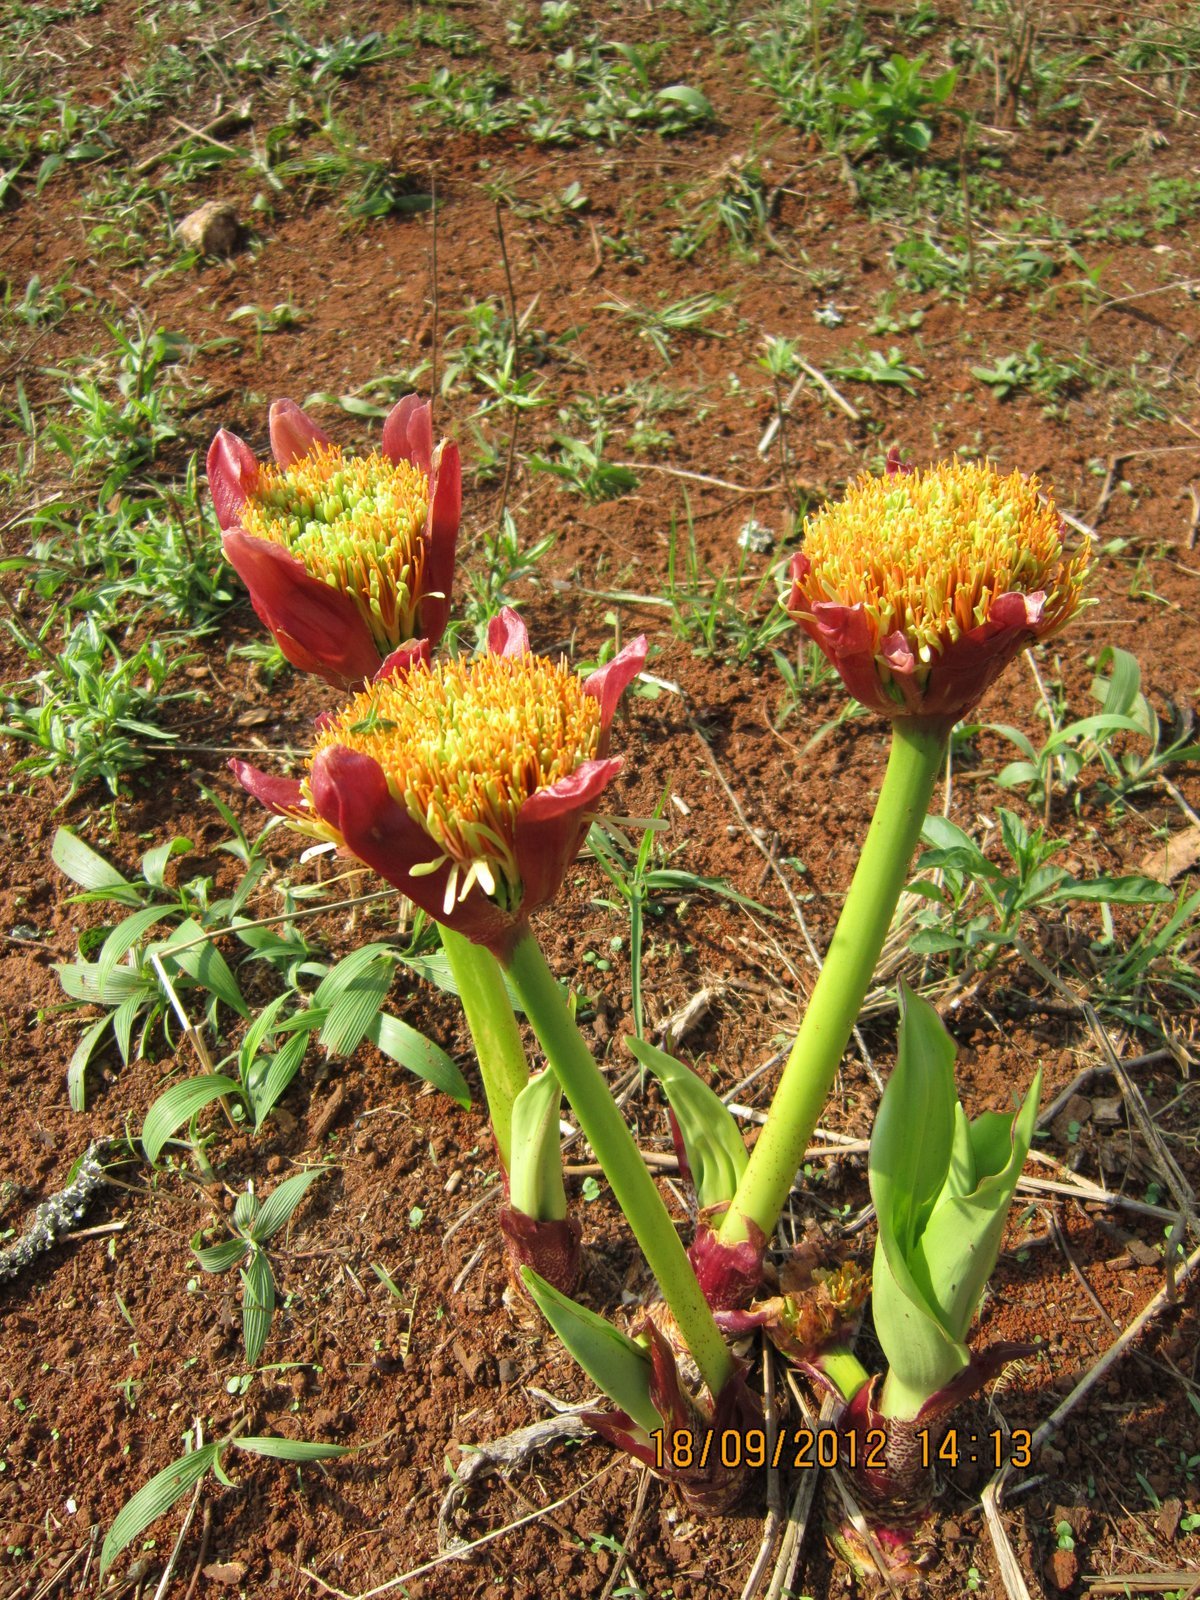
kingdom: Plantae
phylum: Tracheophyta
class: Liliopsida
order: Asparagales
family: Amaryllidaceae
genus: Scadoxus
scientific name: Scadoxus puniceus
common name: Royal-paintbrush
